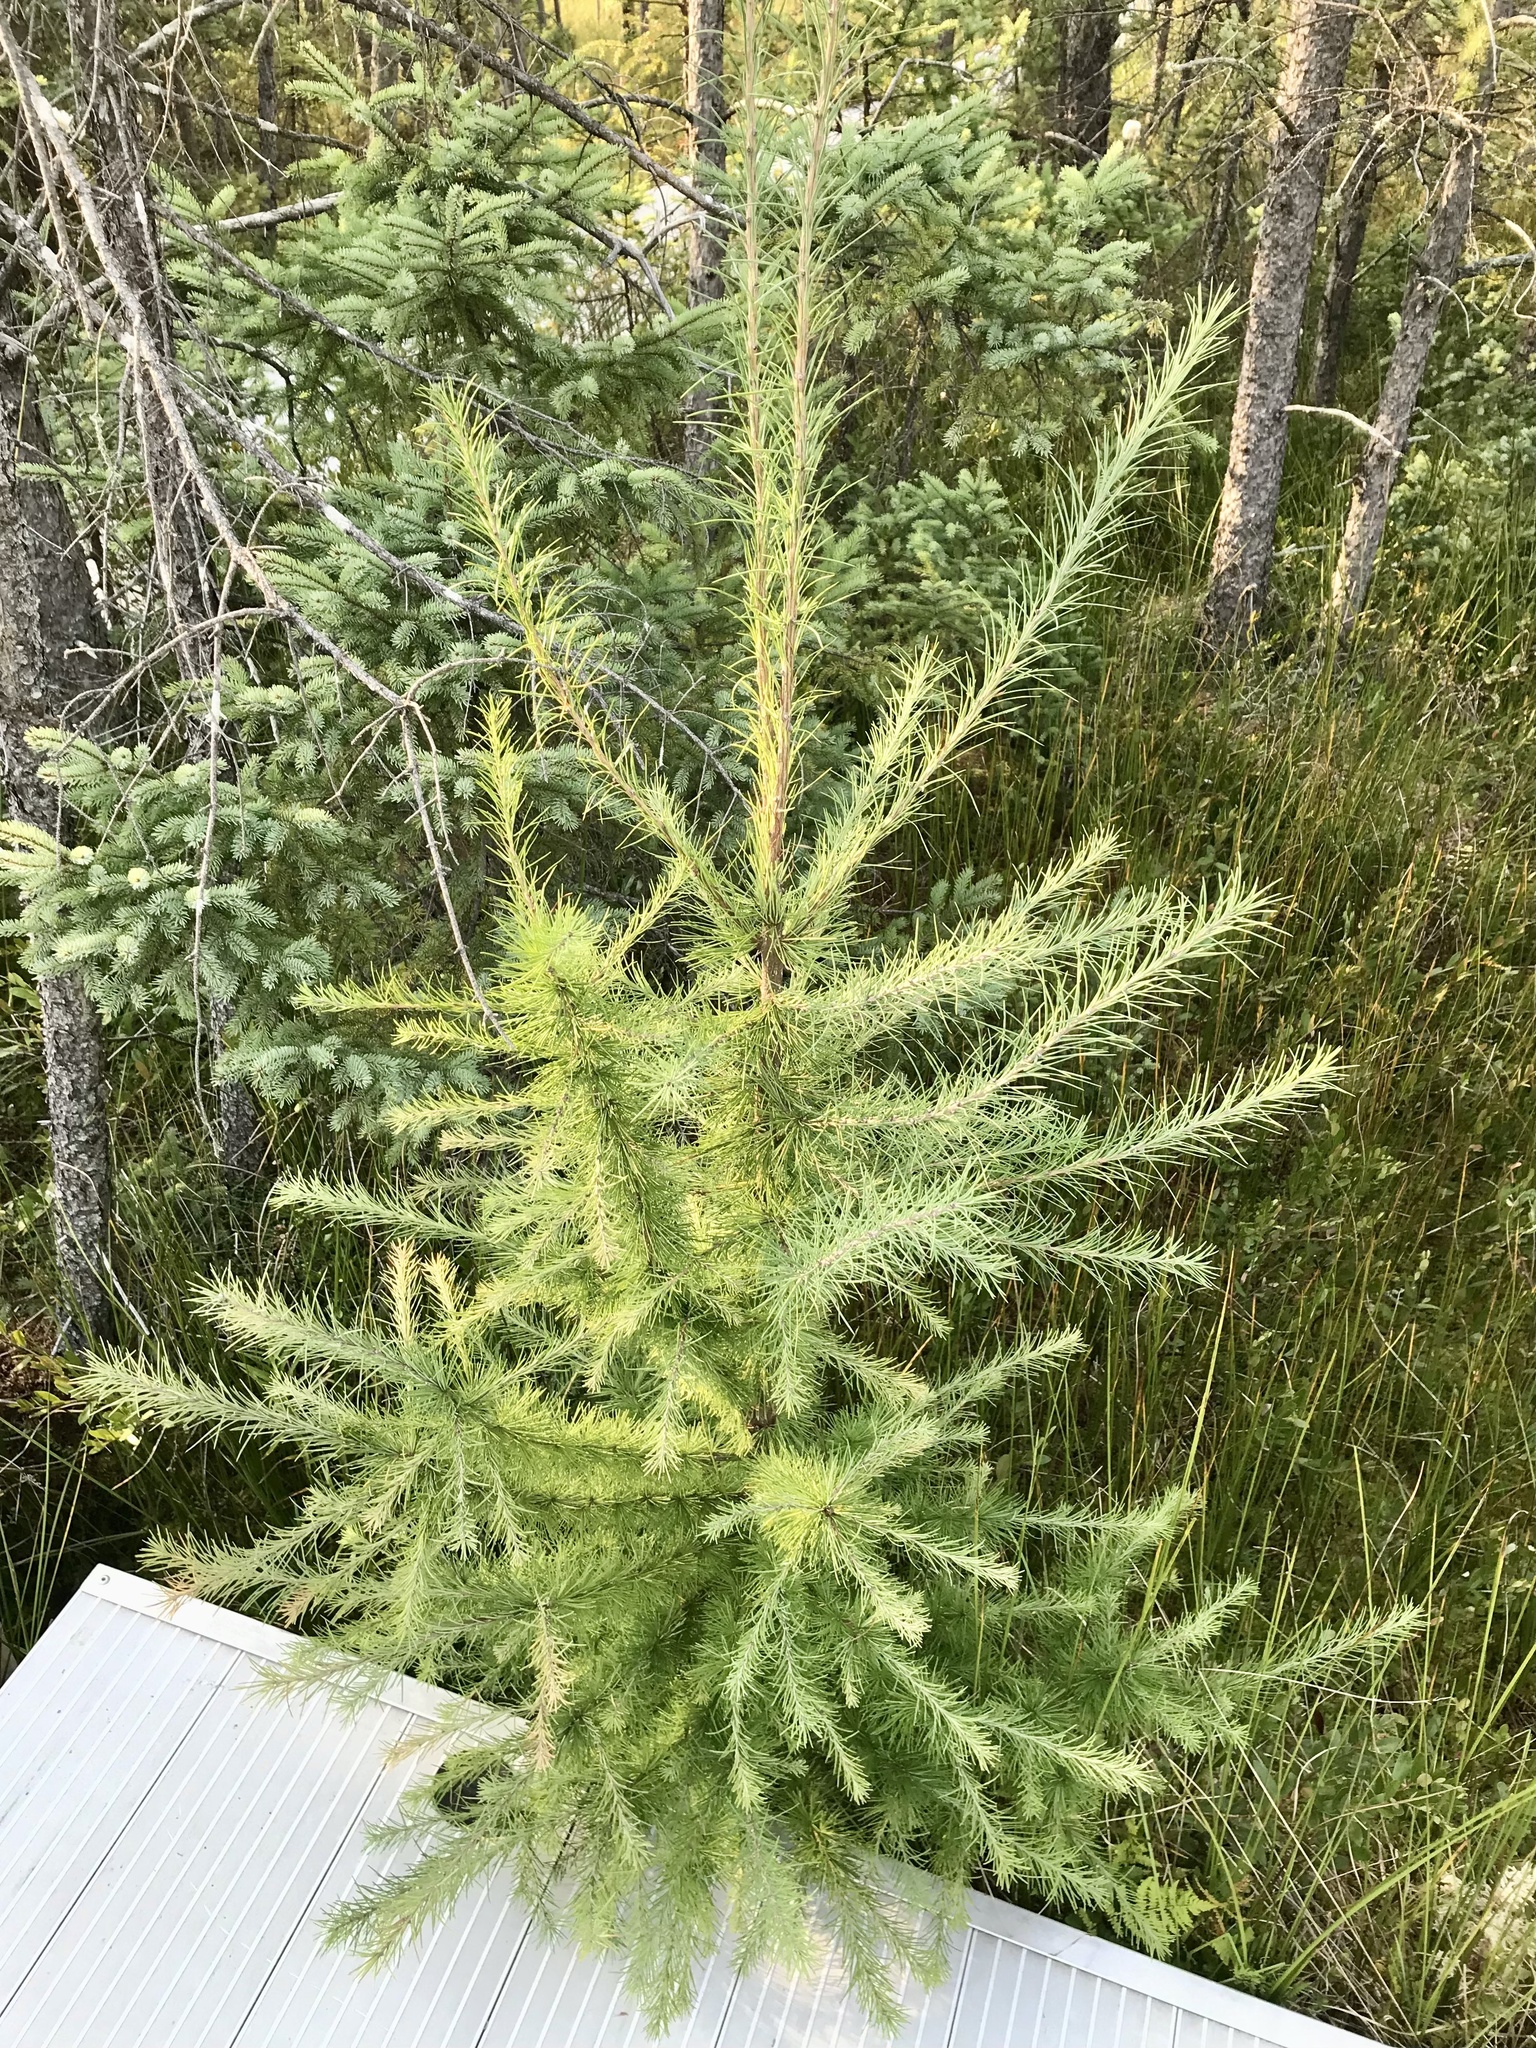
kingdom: Plantae
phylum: Tracheophyta
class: Pinopsida
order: Pinales
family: Pinaceae
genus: Larix
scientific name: Larix laricina
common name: American larch
